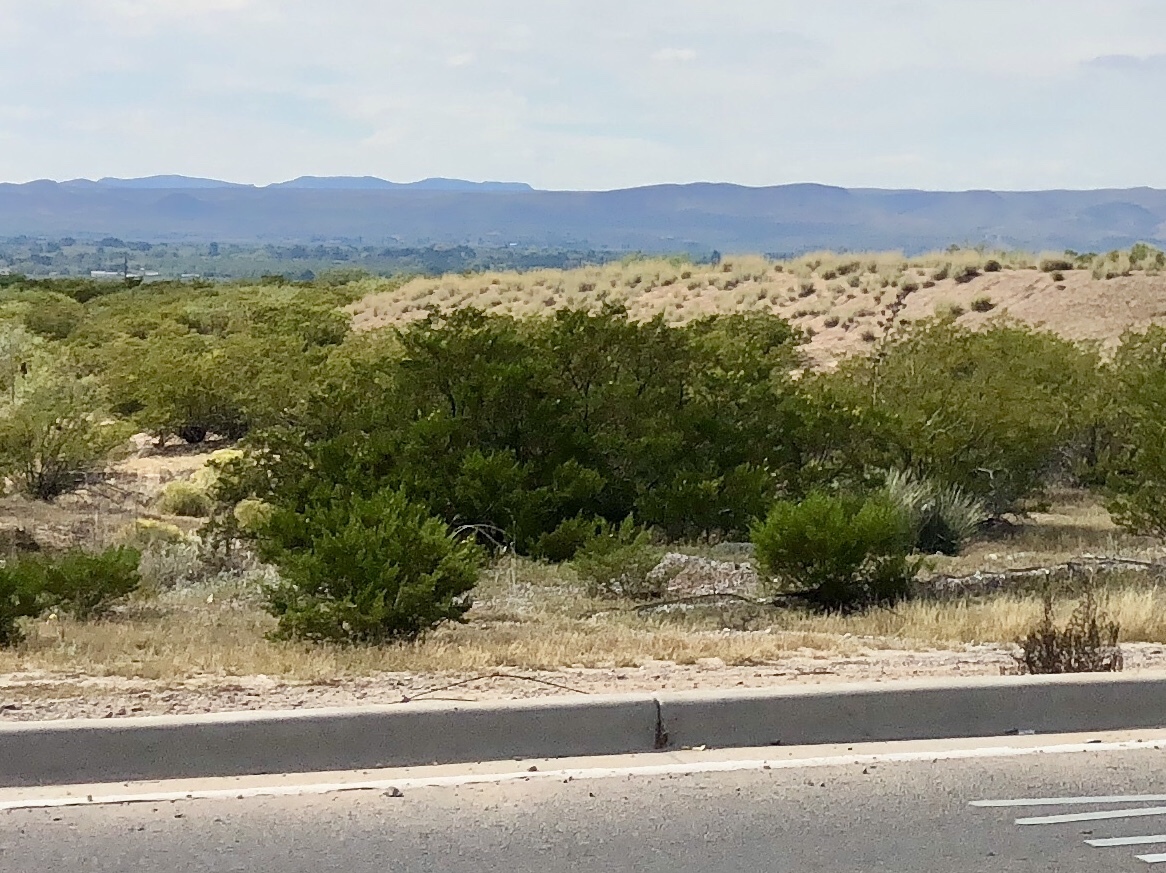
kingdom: Plantae
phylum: Tracheophyta
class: Magnoliopsida
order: Zygophyllales
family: Zygophyllaceae
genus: Larrea
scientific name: Larrea tridentata
